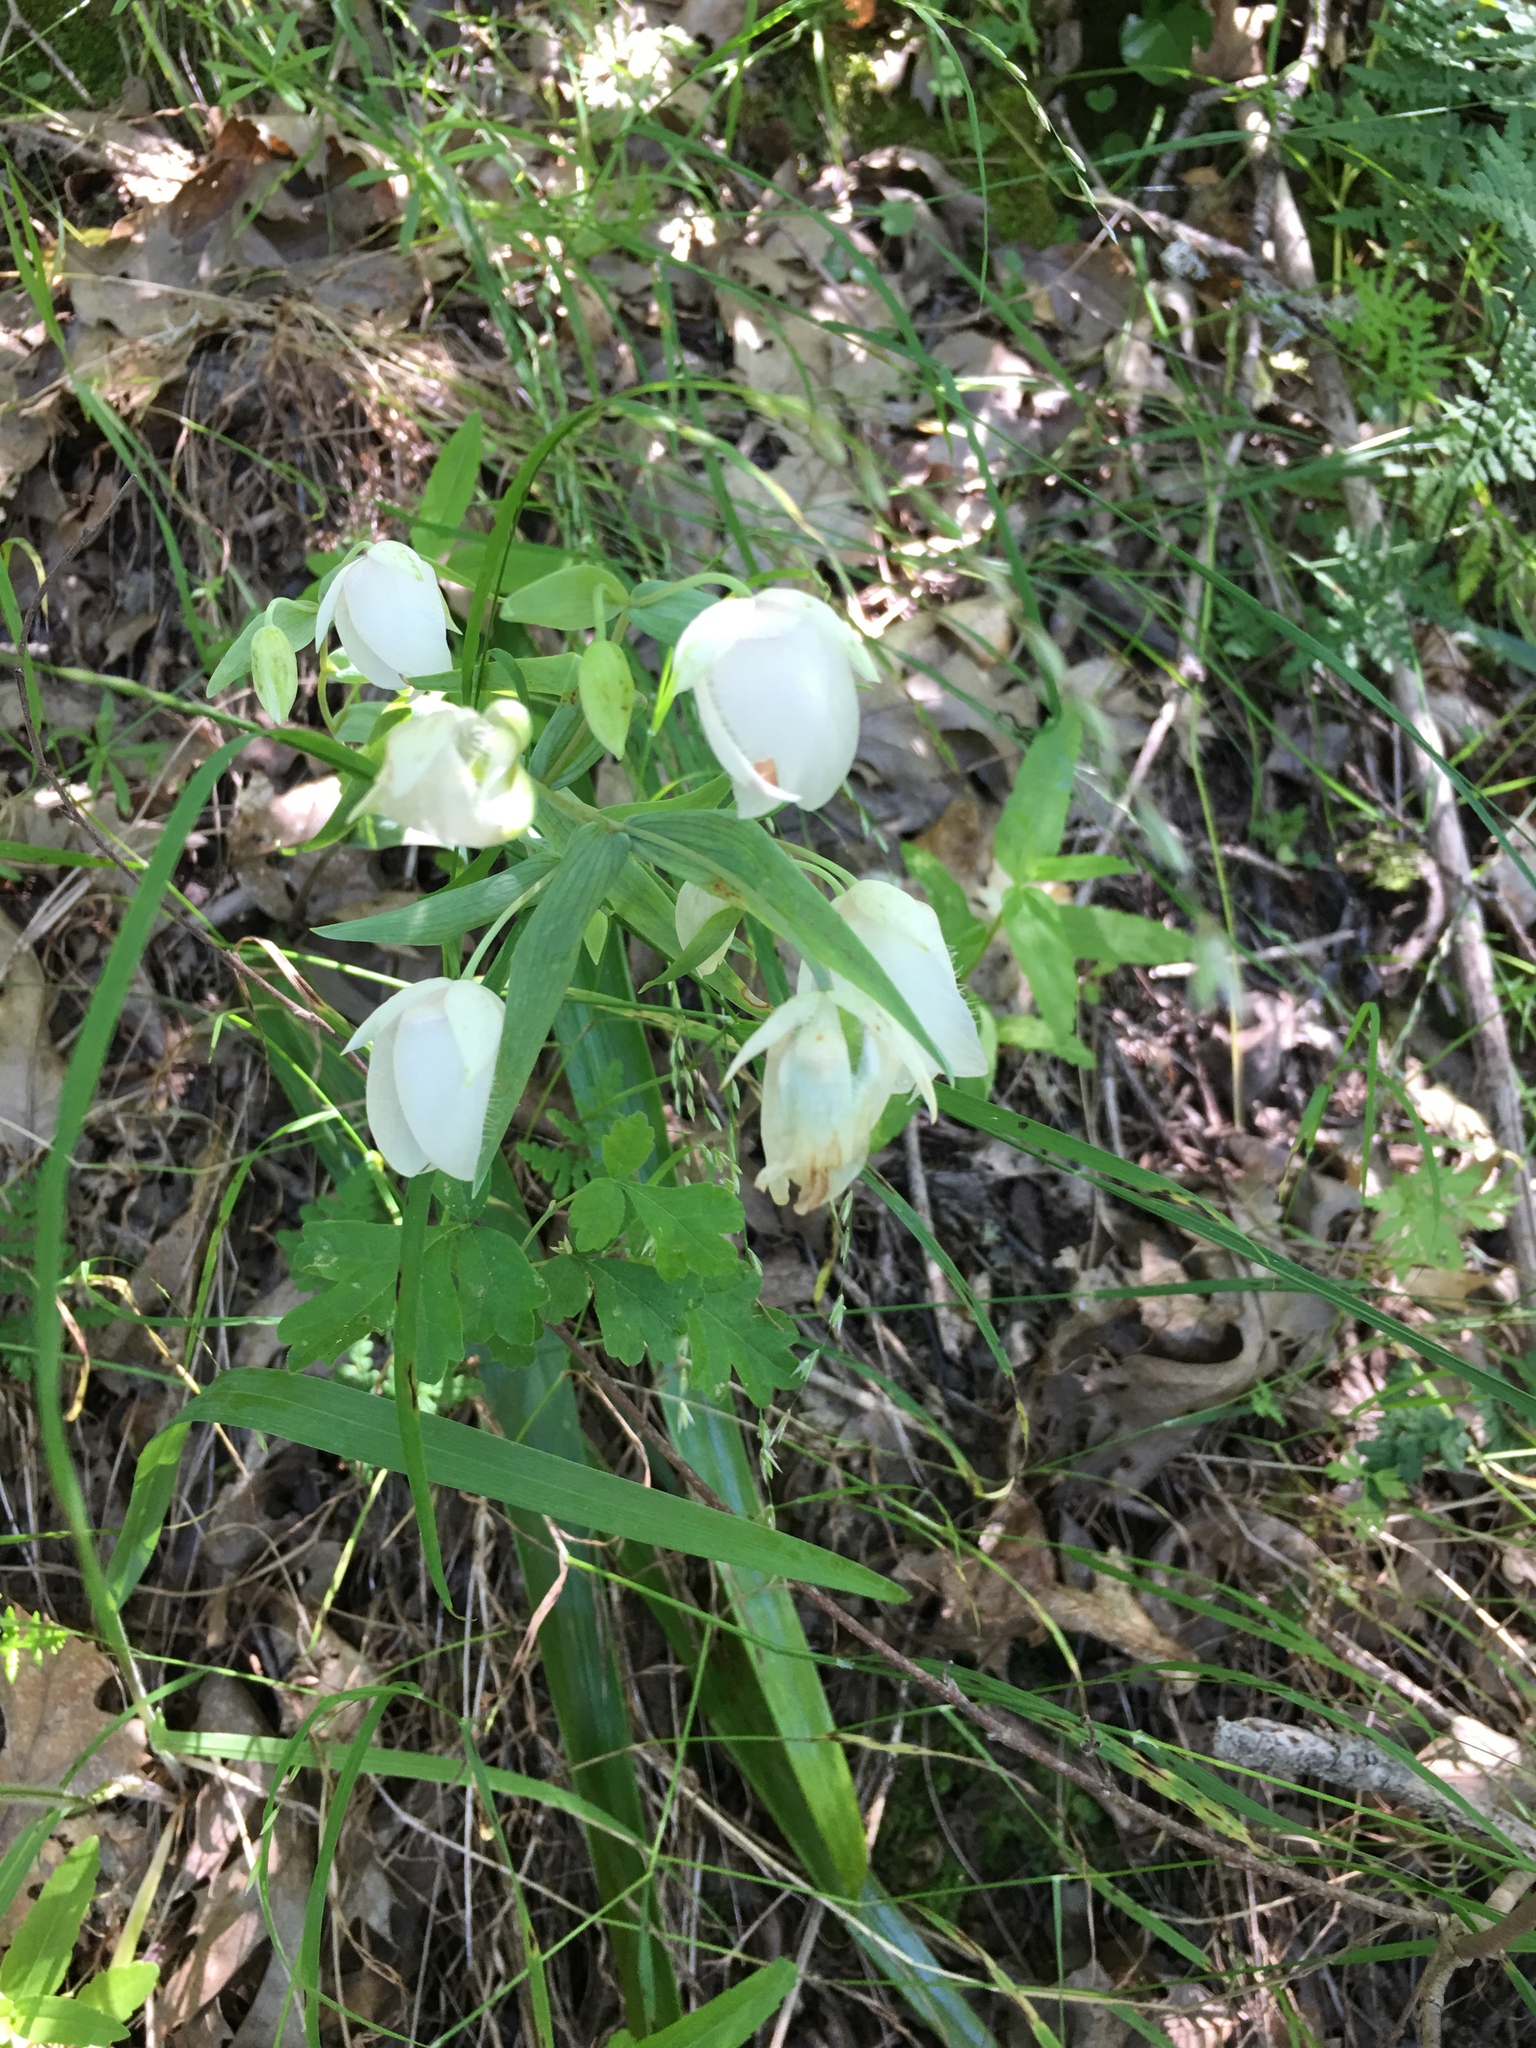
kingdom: Plantae
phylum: Tracheophyta
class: Liliopsida
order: Liliales
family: Liliaceae
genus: Calochortus
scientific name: Calochortus albus
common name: Fairy-lantern
